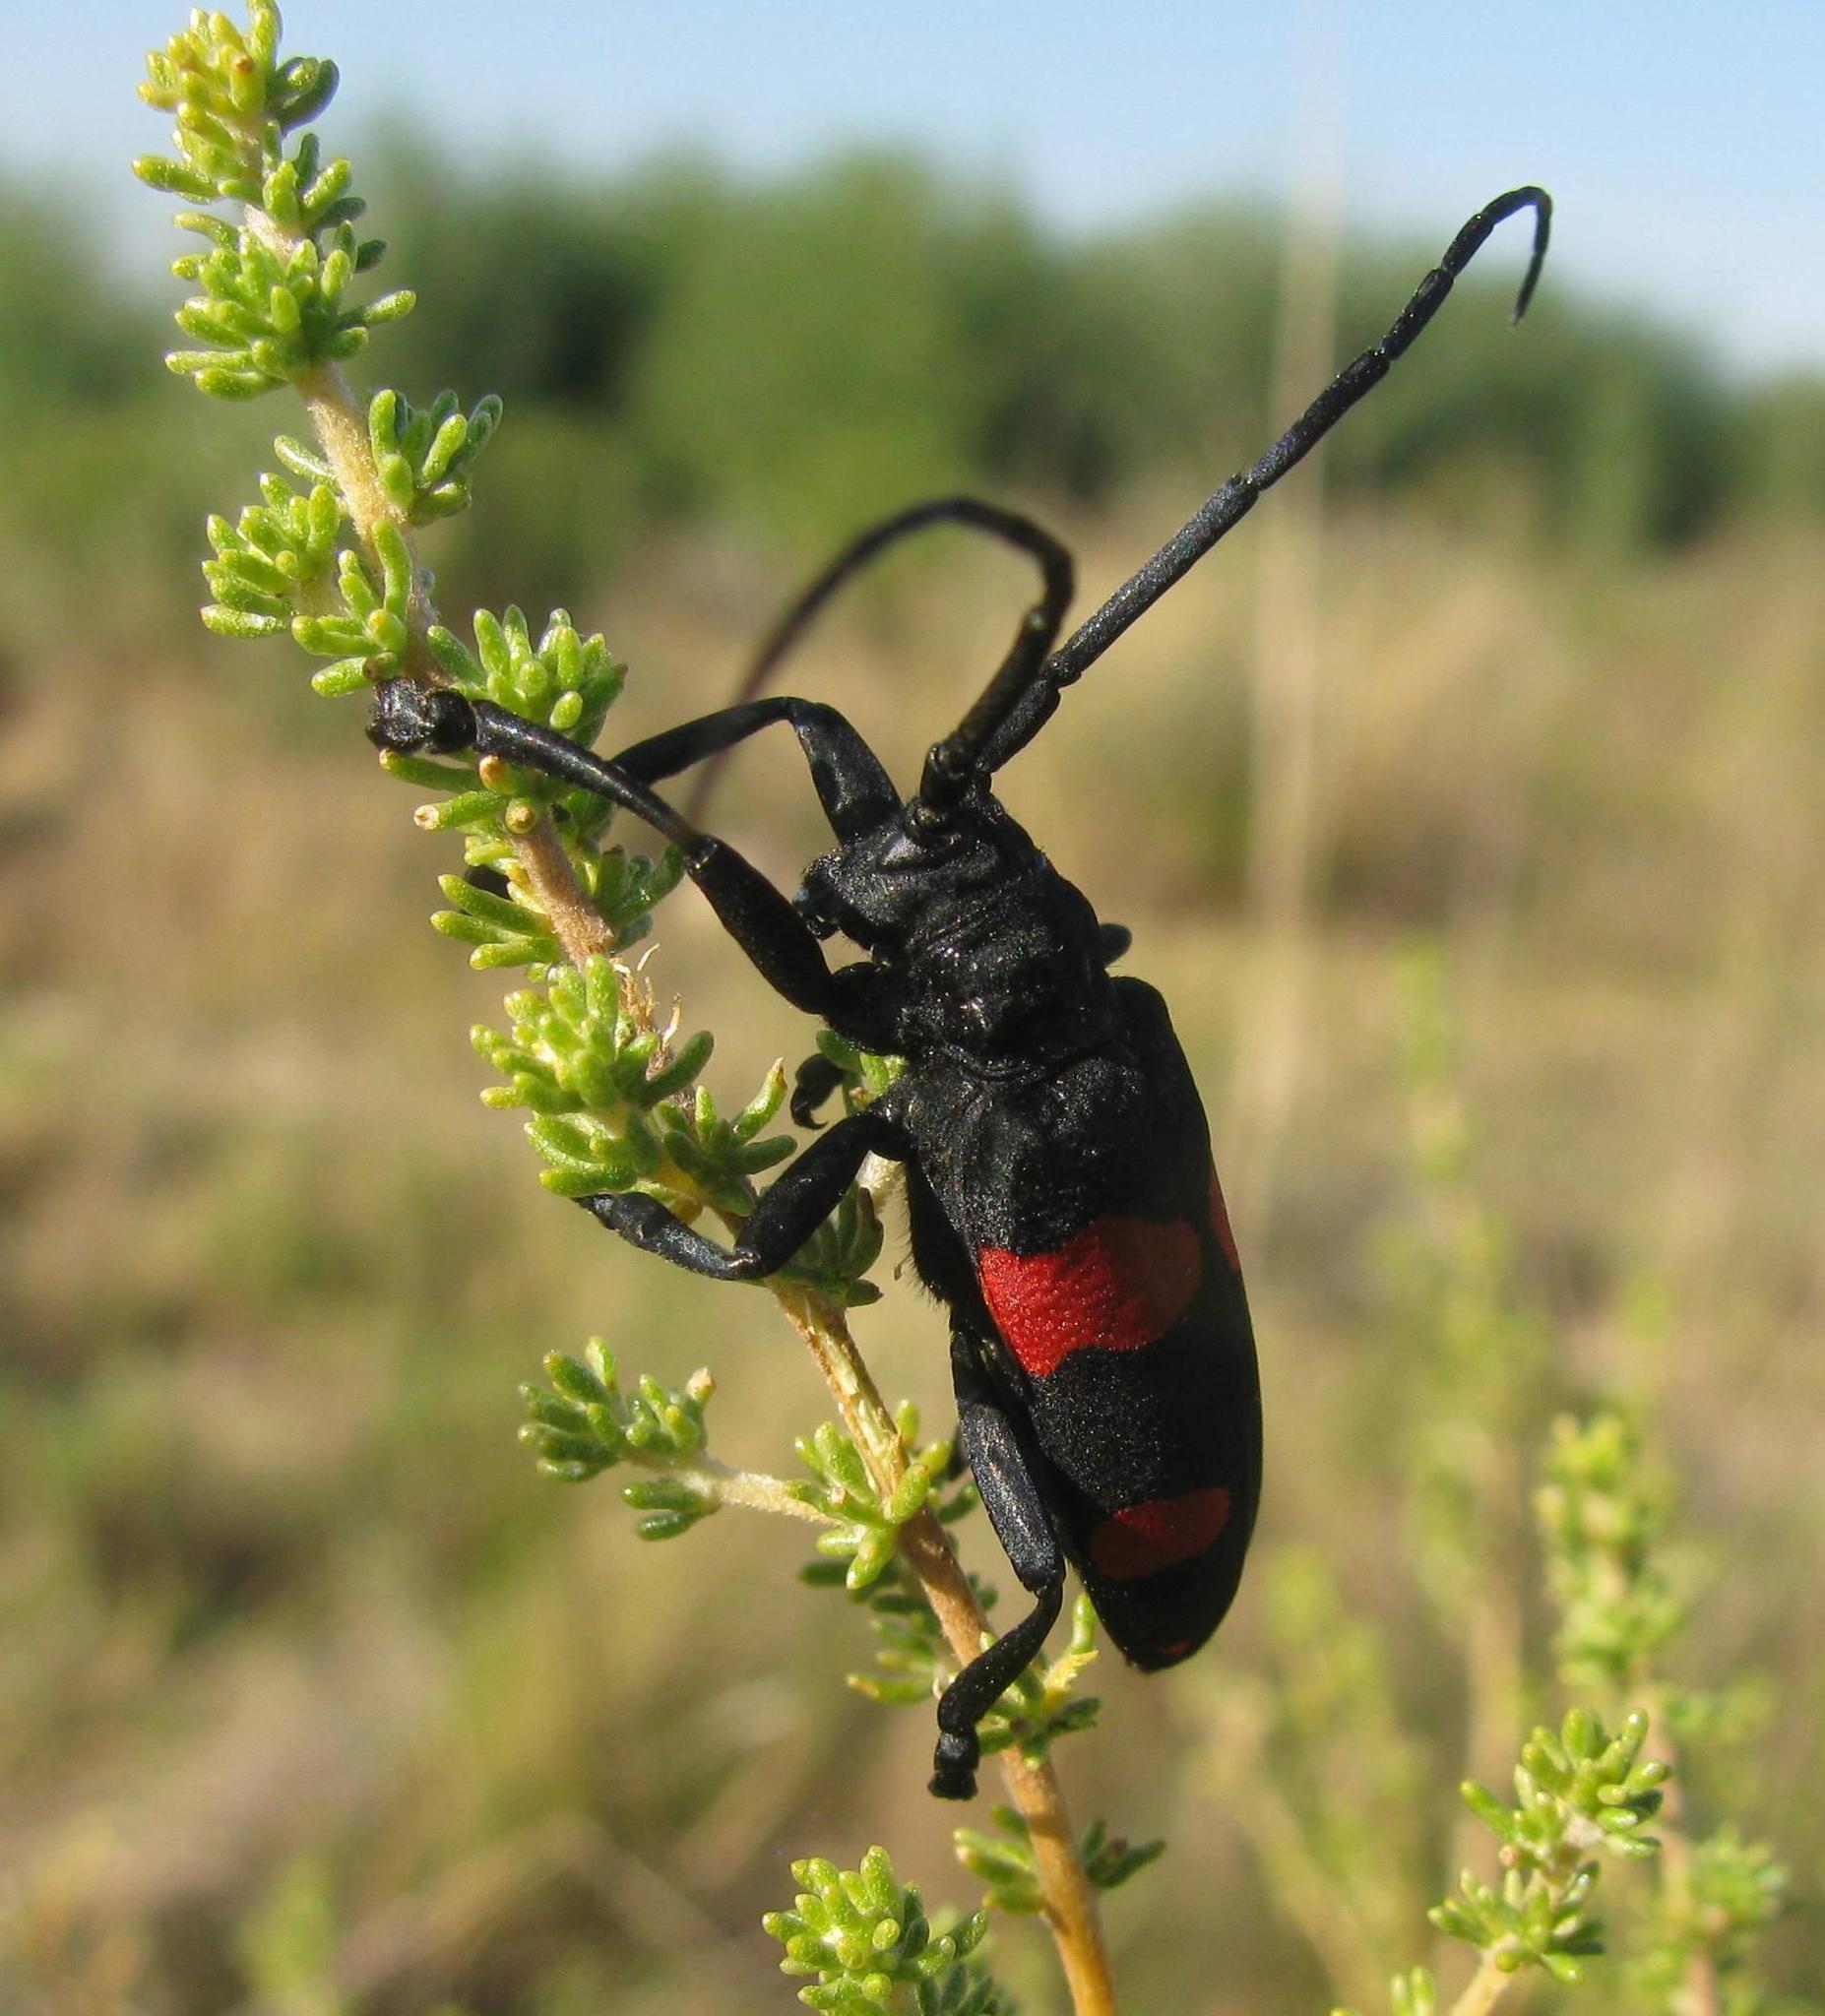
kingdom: Animalia
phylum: Arthropoda
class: Insecta
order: Coleoptera
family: Cerambycidae
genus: Ceroplesis
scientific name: Ceroplesis aethiops
